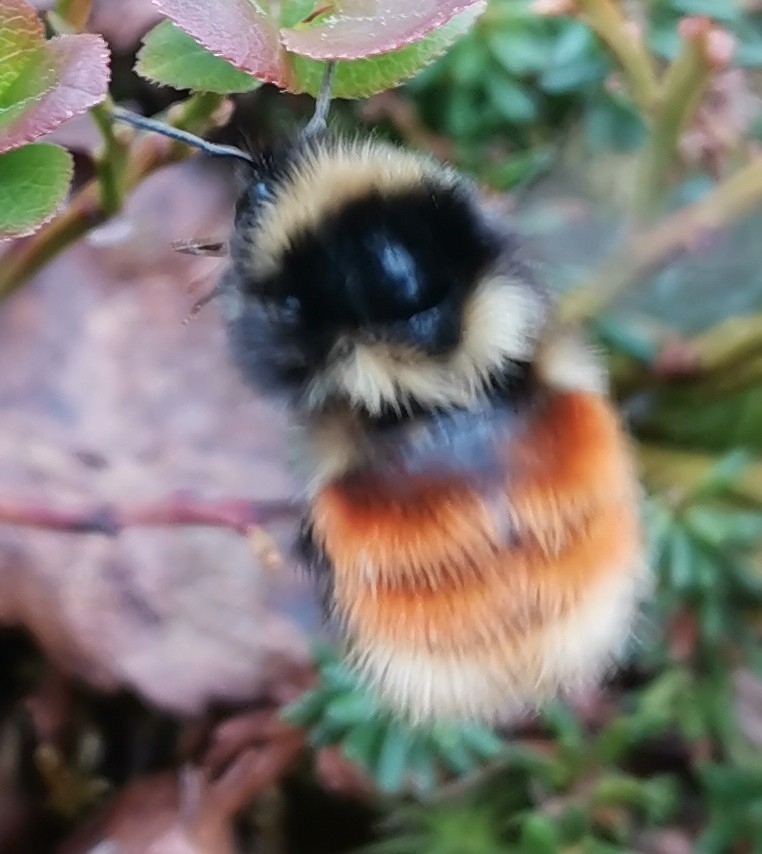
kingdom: Animalia
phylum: Arthropoda
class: Insecta
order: Hymenoptera
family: Apidae
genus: Bombus
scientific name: Bombus lapponicus
